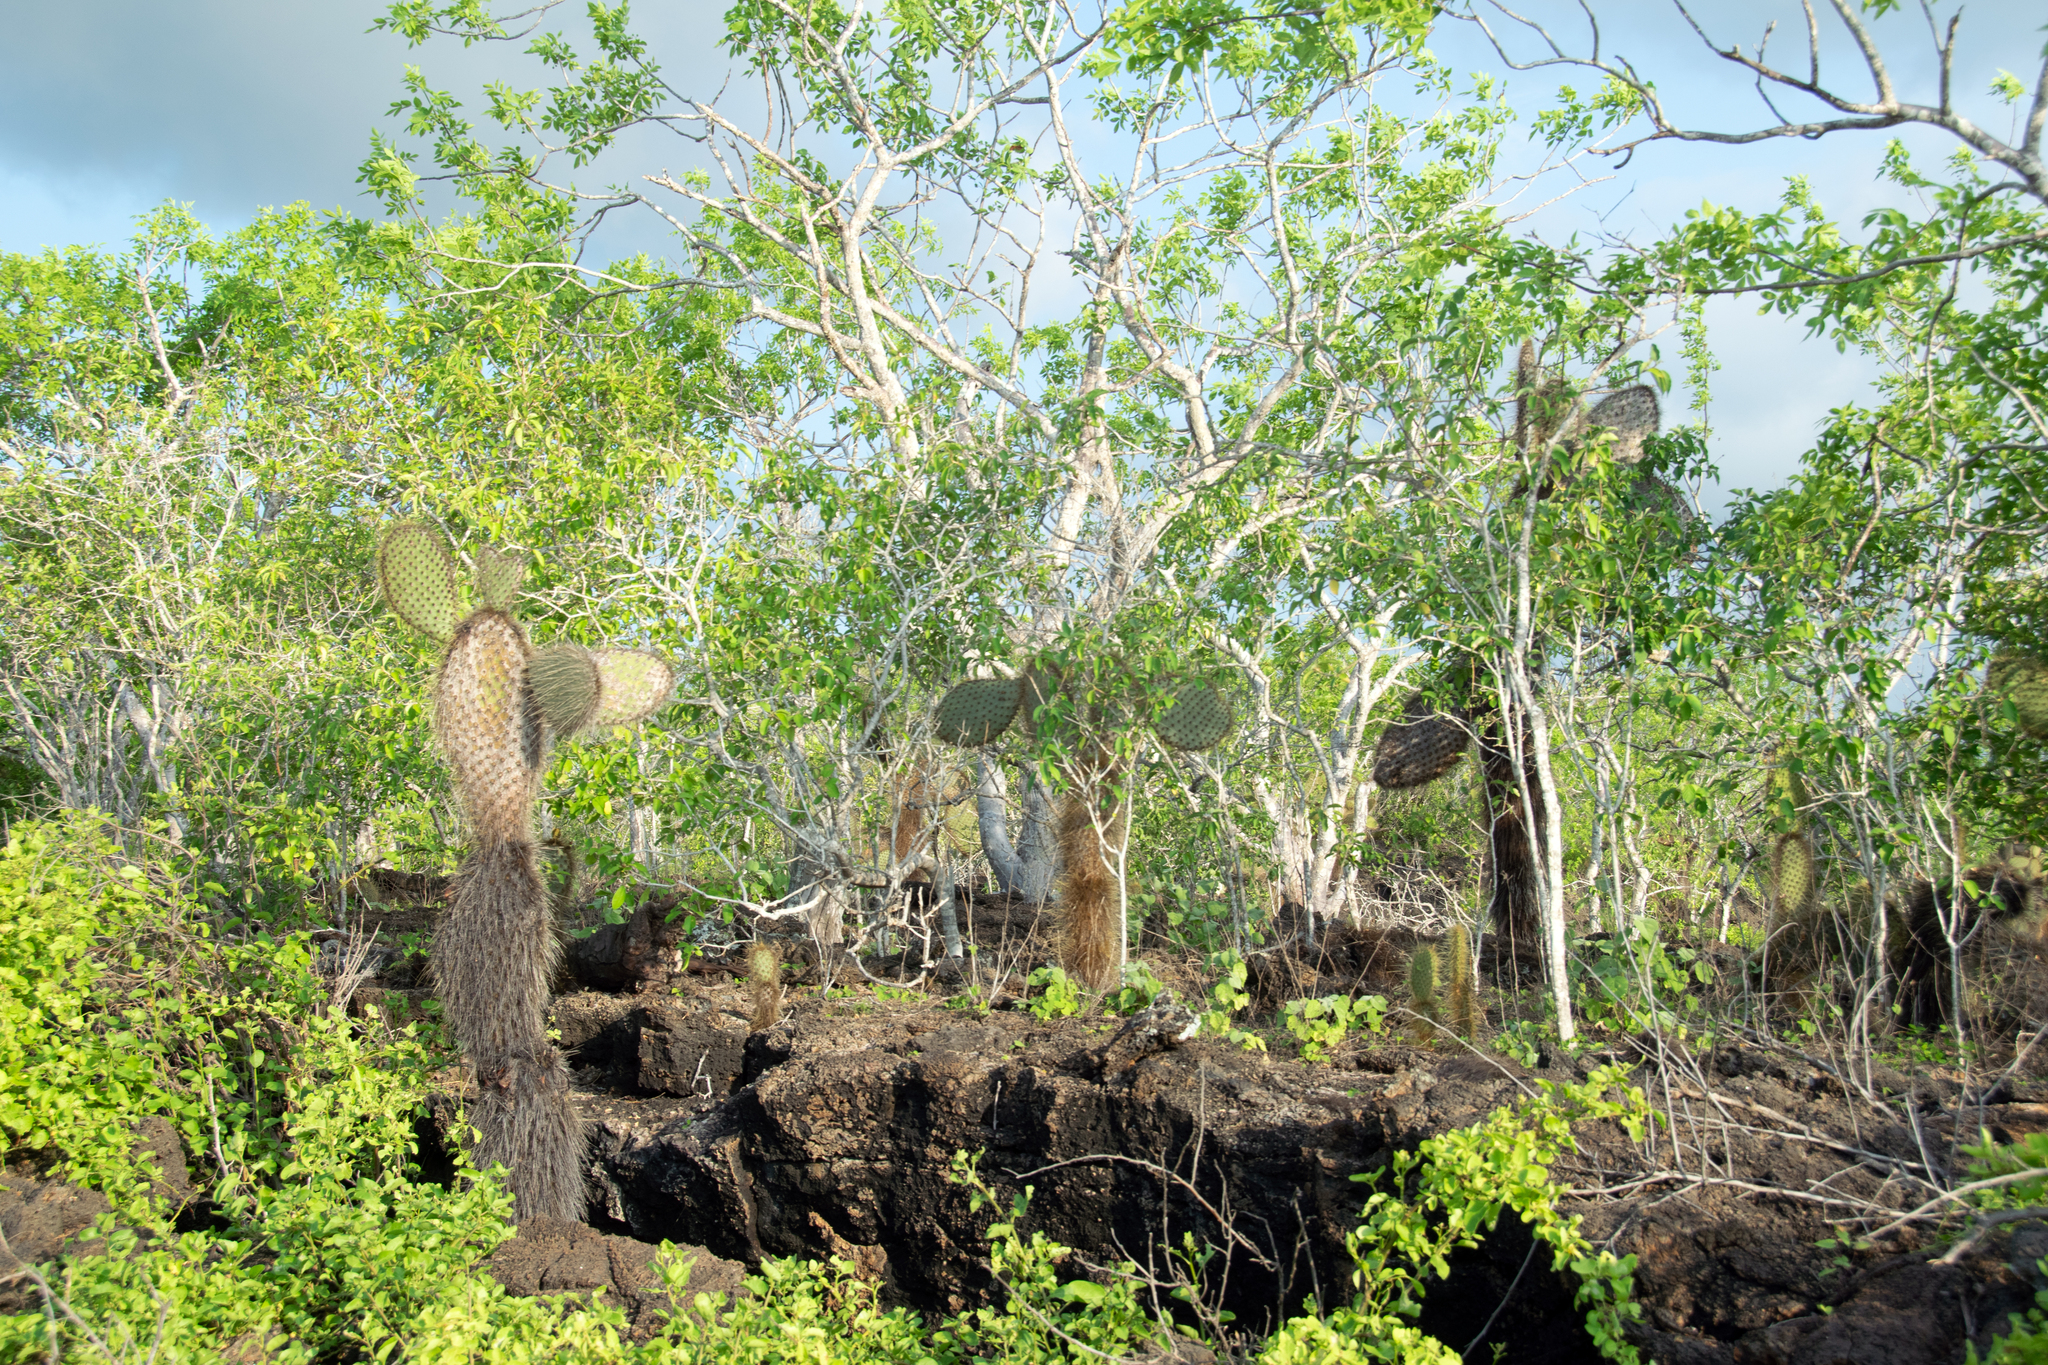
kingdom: Plantae
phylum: Tracheophyta
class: Magnoliopsida
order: Caryophyllales
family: Cactaceae
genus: Opuntia
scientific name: Opuntia galapageia
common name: Galápagos prickly pear
